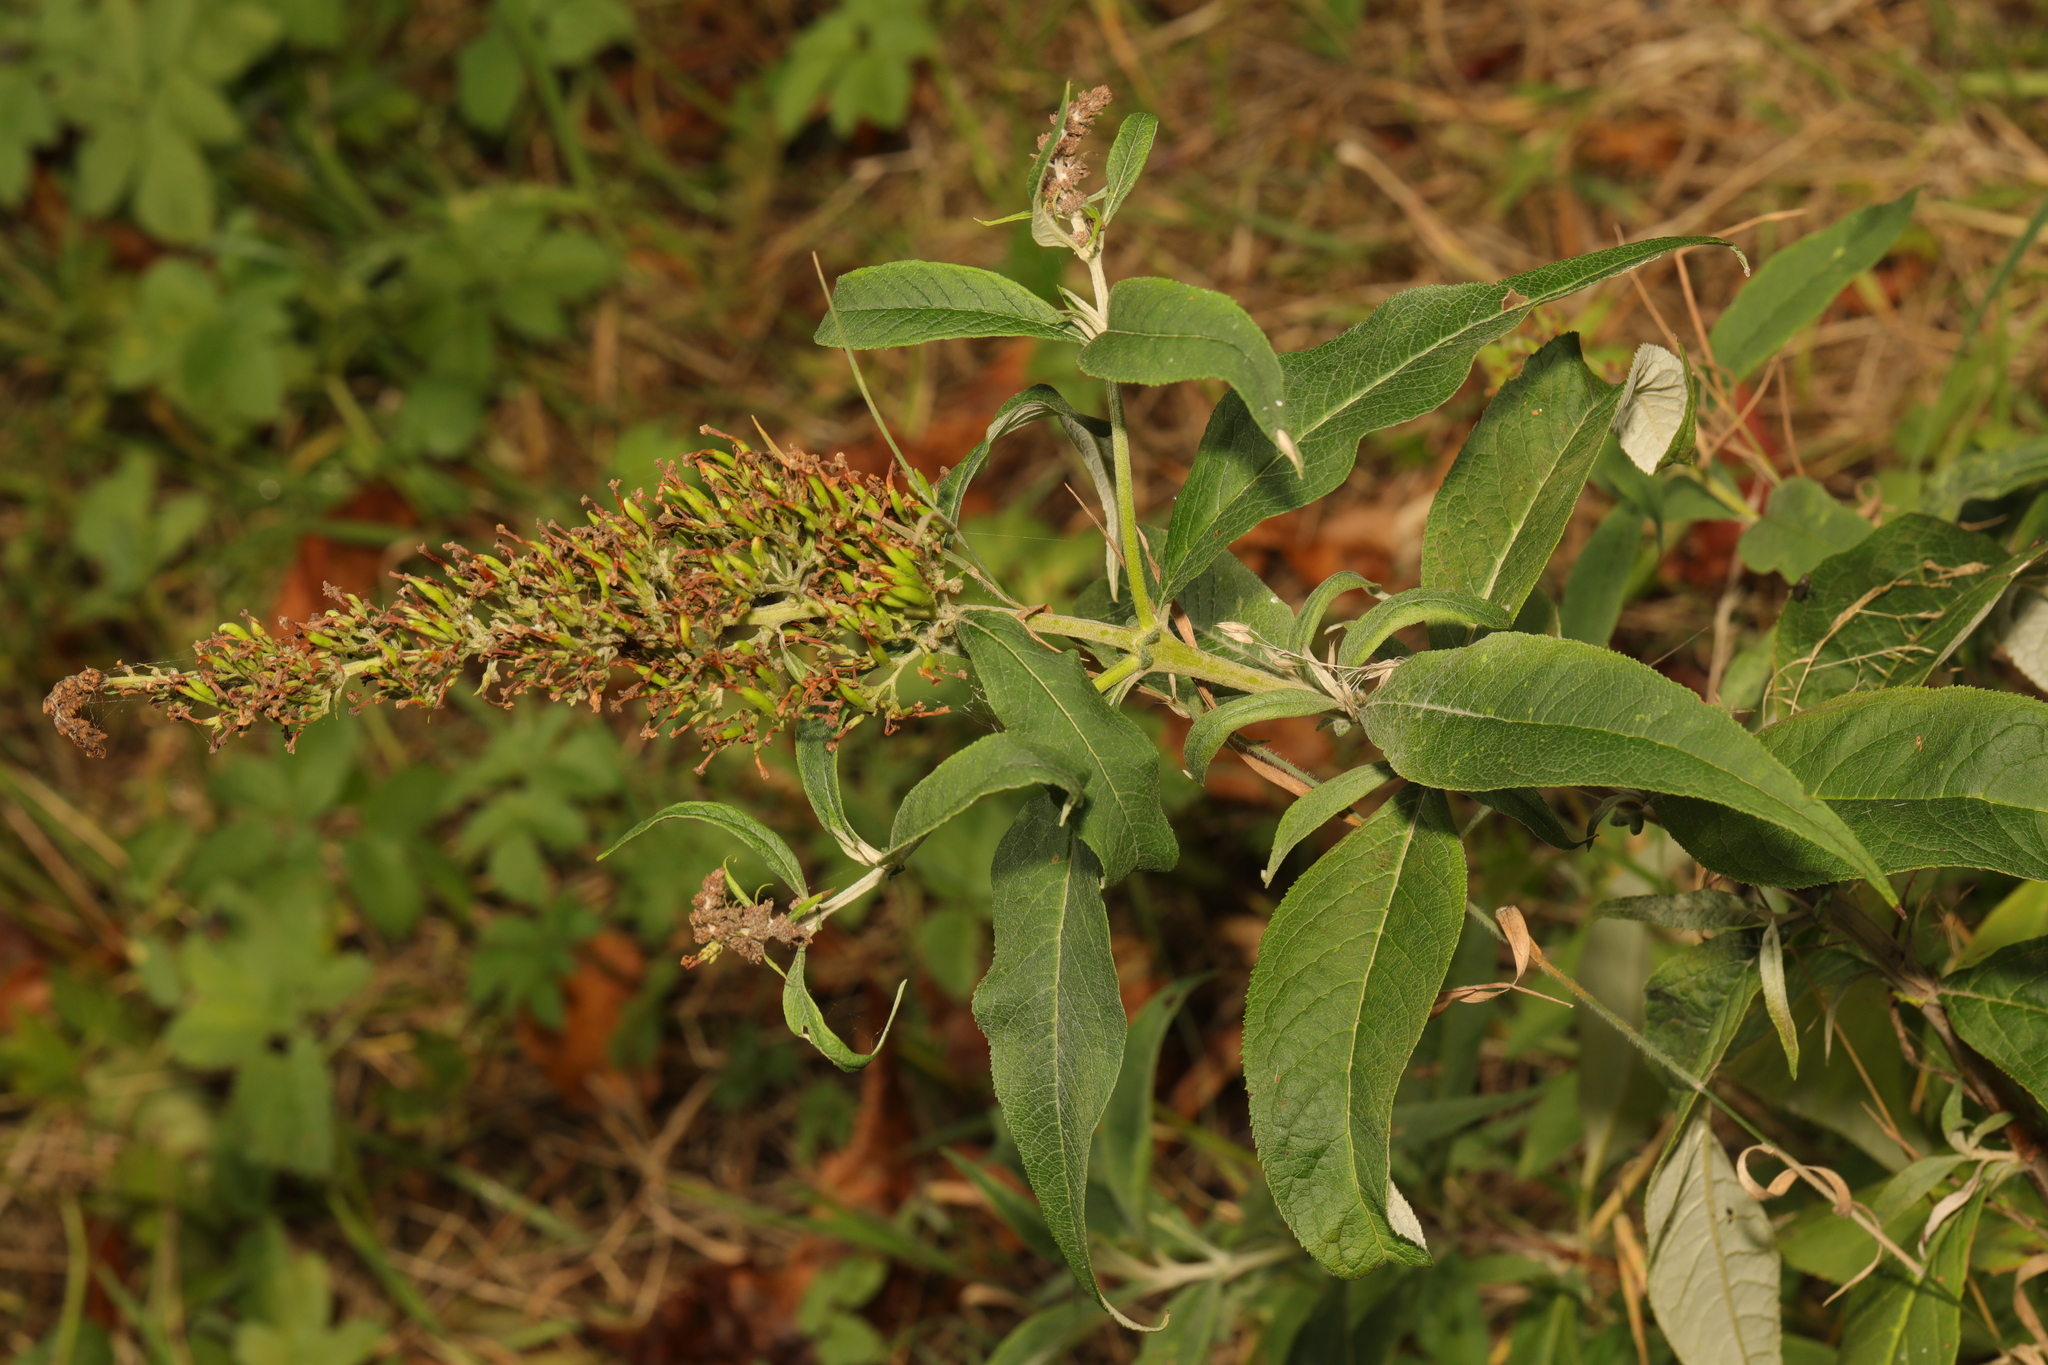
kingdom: Plantae
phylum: Tracheophyta
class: Magnoliopsida
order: Lamiales
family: Scrophulariaceae
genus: Buddleja
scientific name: Buddleja davidii
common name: Butterfly-bush
